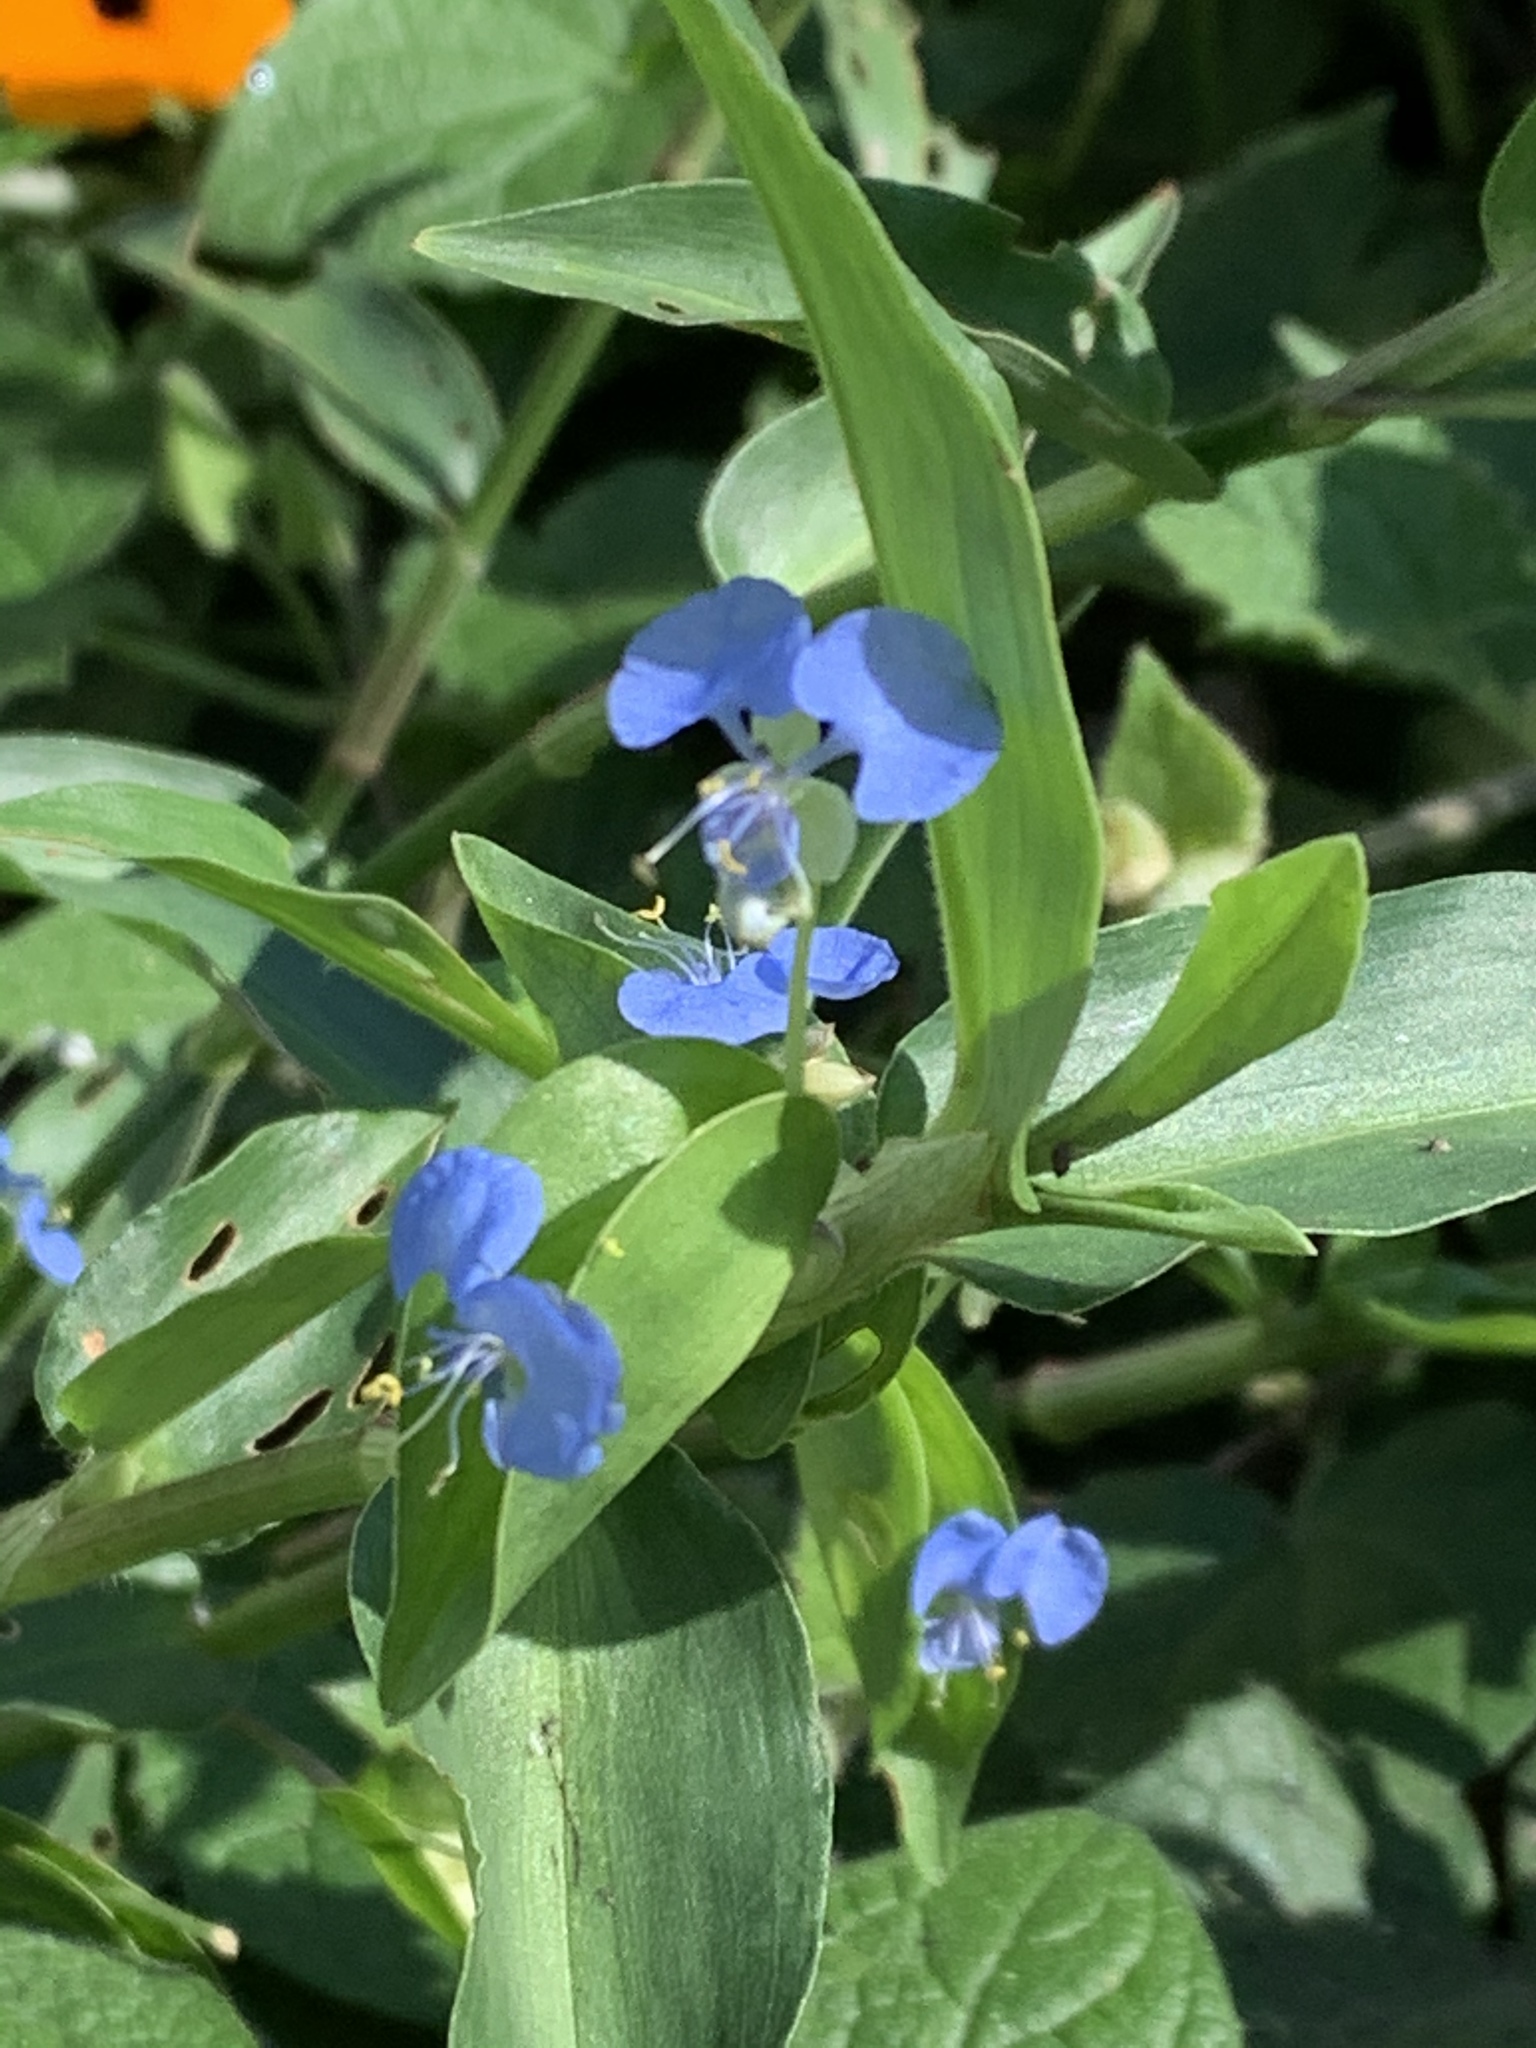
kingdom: Plantae
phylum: Tracheophyta
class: Liliopsida
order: Commelinales
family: Commelinaceae
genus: Commelina
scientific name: Commelina diffusa
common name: Climbing dayflower
